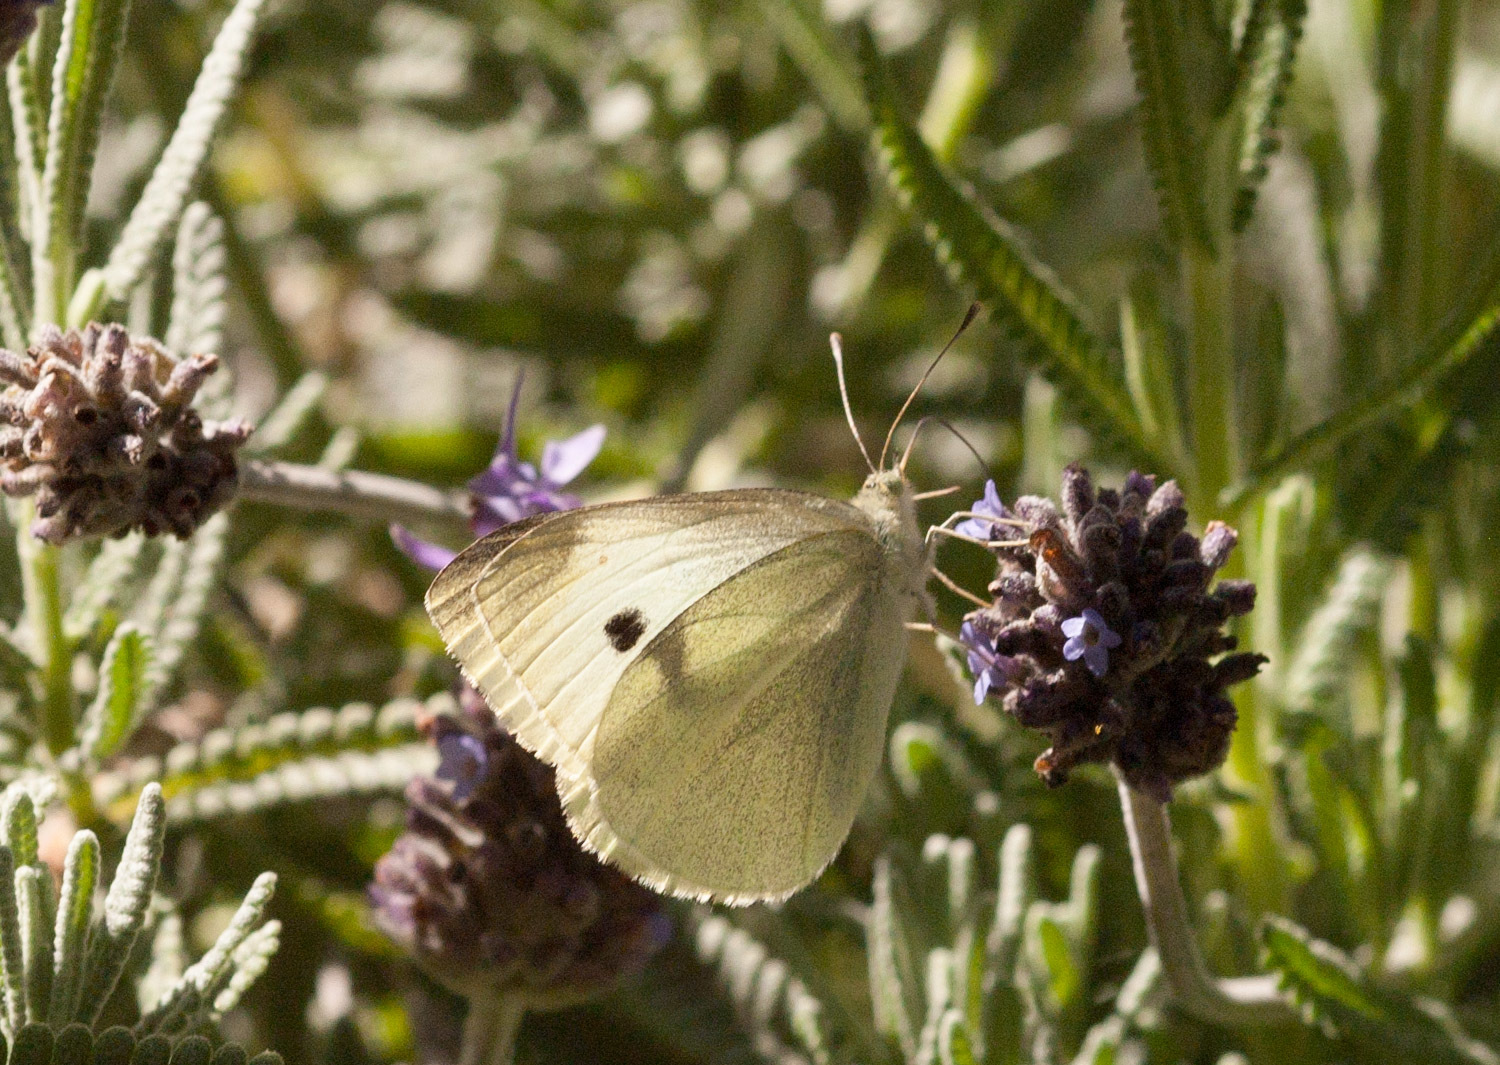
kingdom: Animalia
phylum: Arthropoda
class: Insecta
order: Lepidoptera
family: Pieridae
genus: Pieris
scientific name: Pieris rapae
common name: Small white
